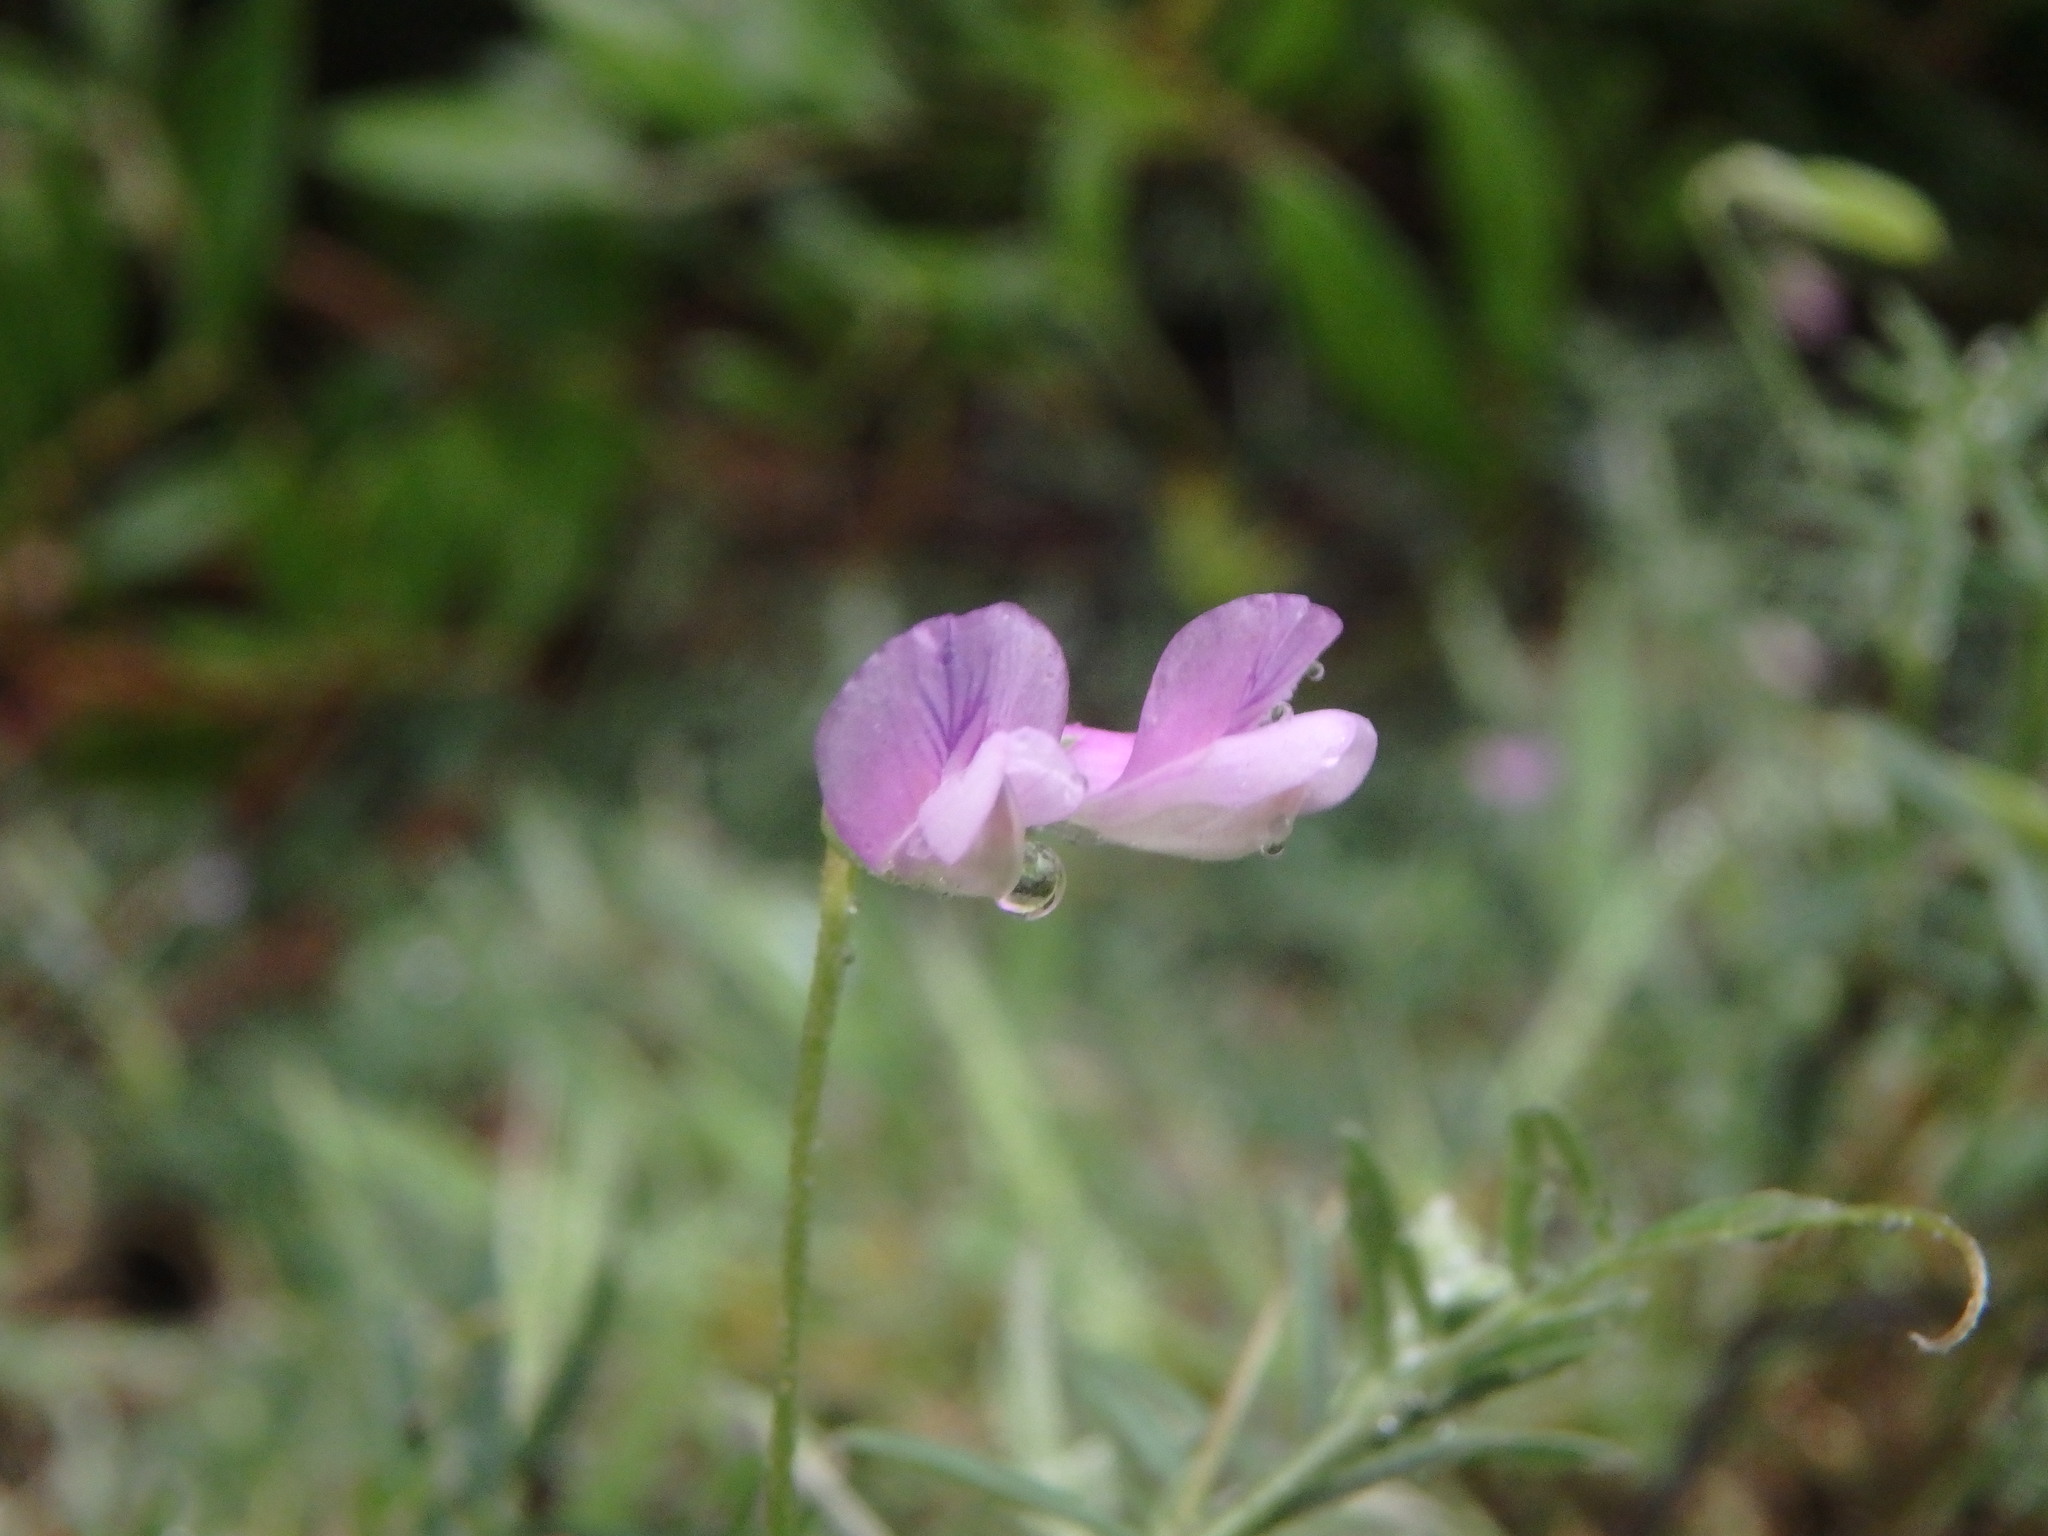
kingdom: Plantae
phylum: Tracheophyta
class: Magnoliopsida
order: Fabales
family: Fabaceae
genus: Vicia
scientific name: Vicia parviflora
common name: Slender tare
